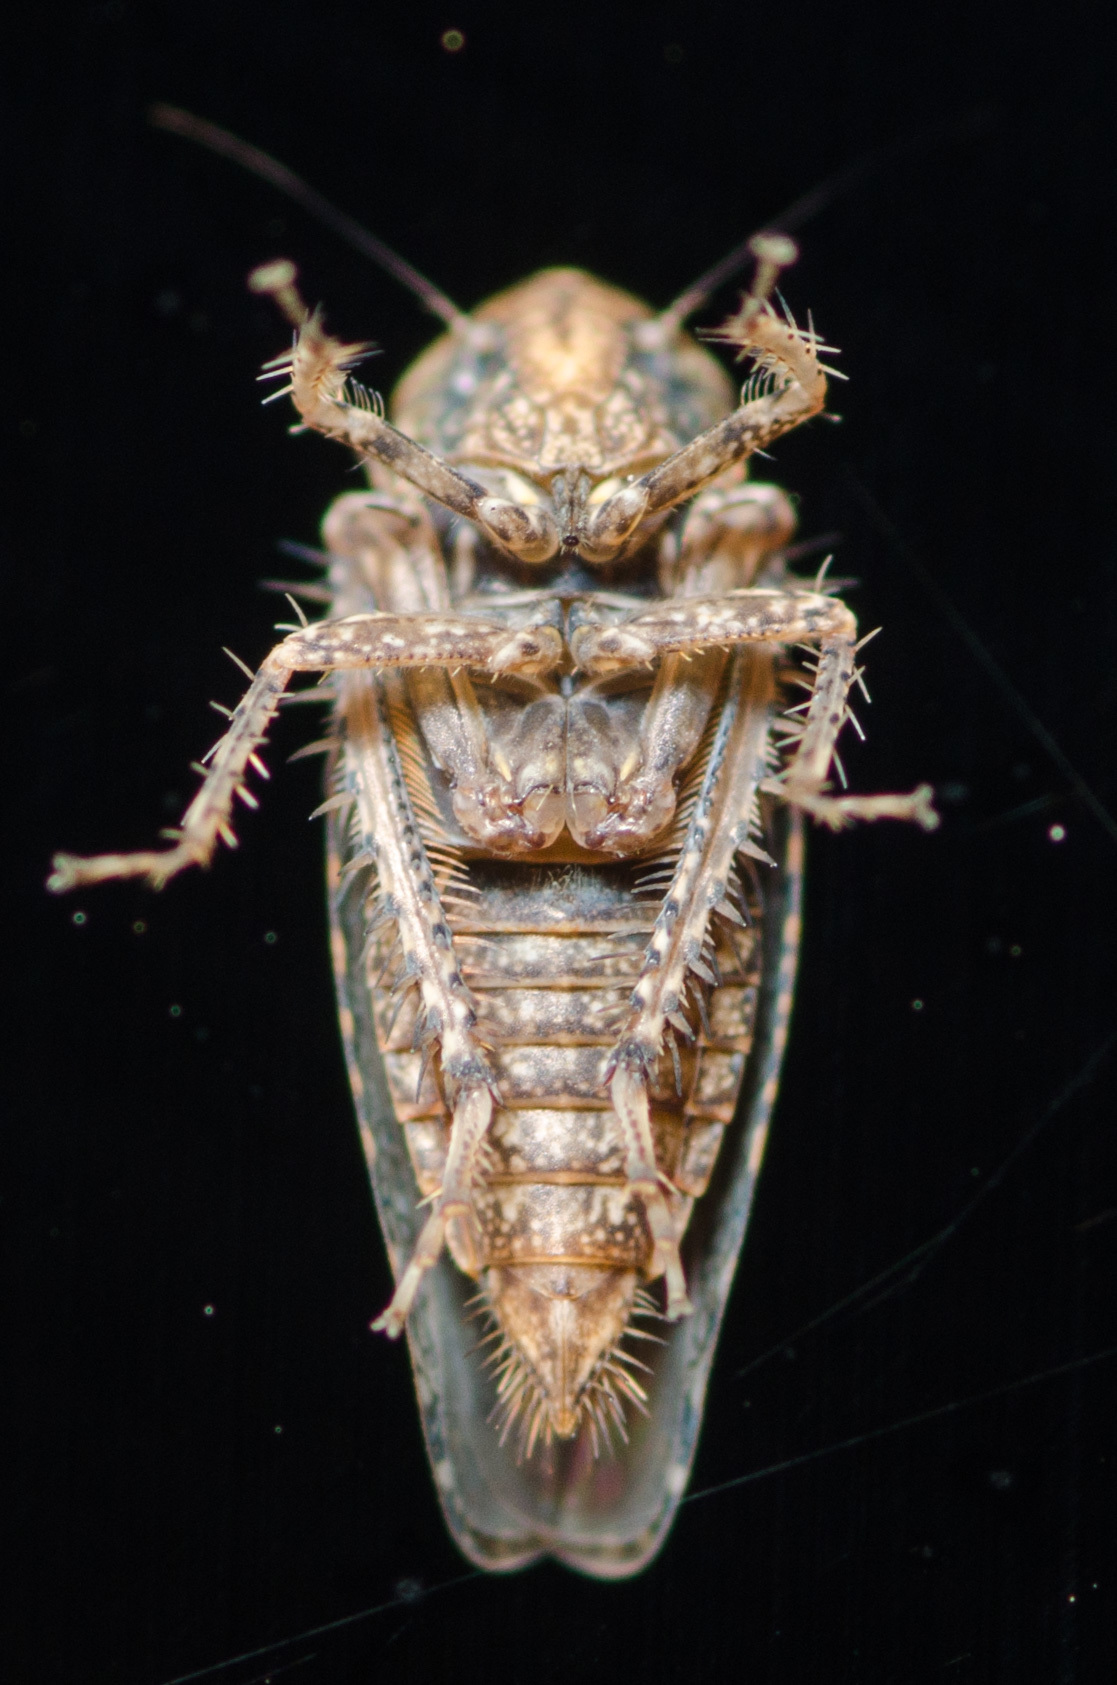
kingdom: Animalia
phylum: Arthropoda
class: Insecta
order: Hemiptera
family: Cicadellidae
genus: Excultanus
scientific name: Excultanus excultus
